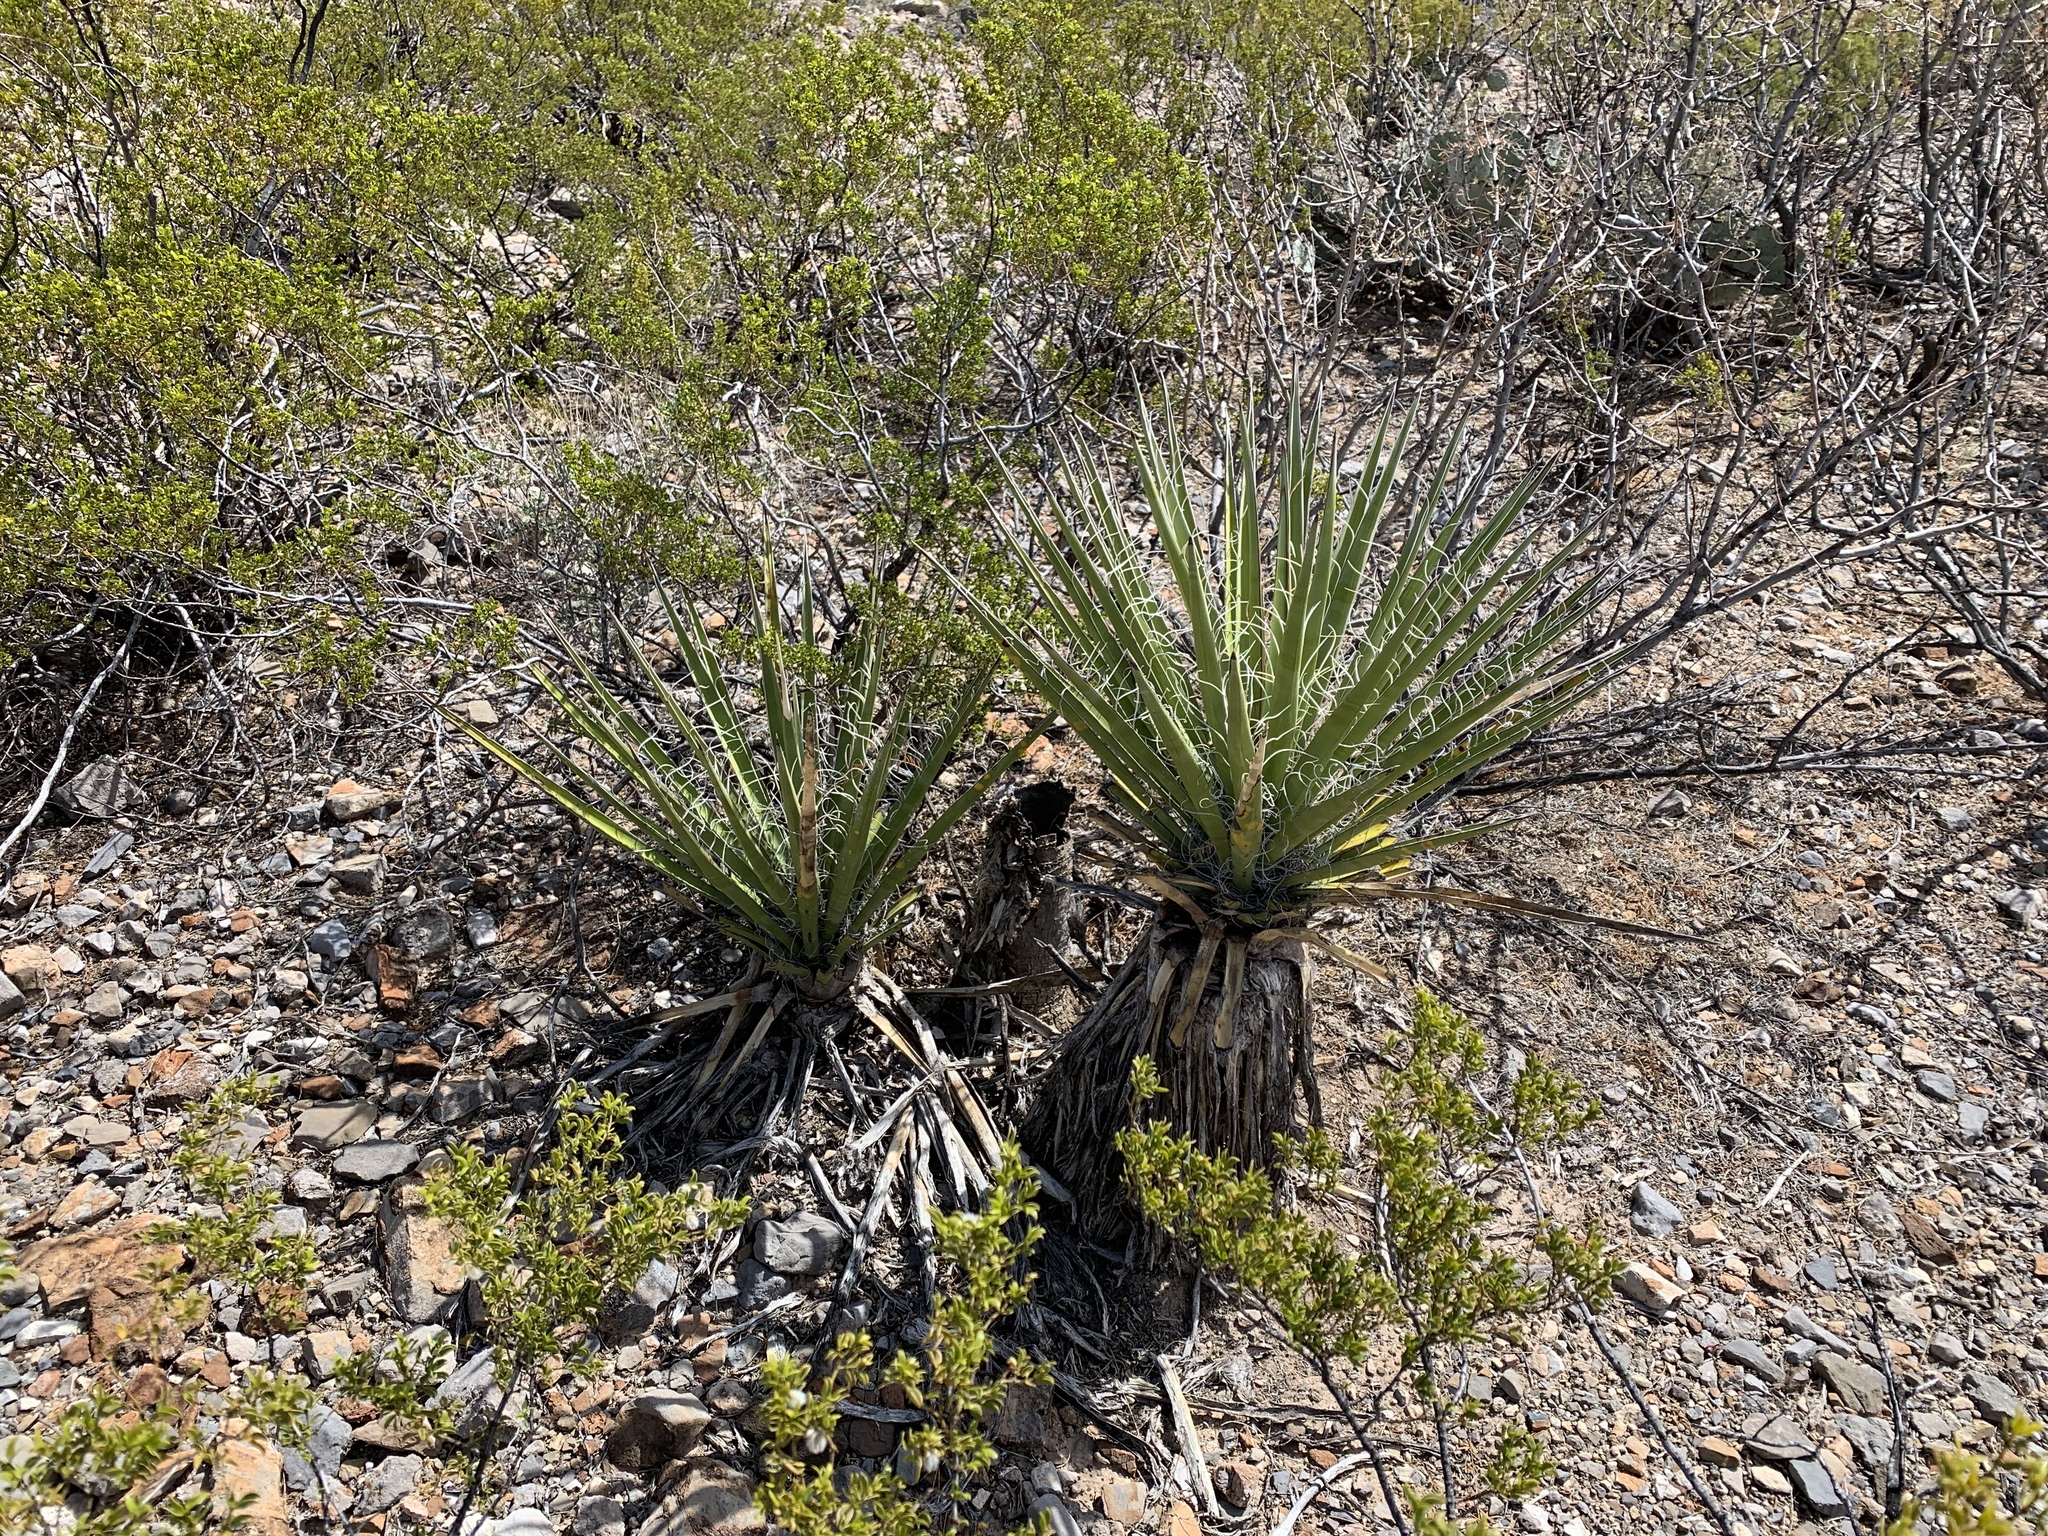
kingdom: Plantae
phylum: Tracheophyta
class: Liliopsida
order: Asparagales
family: Asparagaceae
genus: Yucca
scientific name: Yucca treculiana
